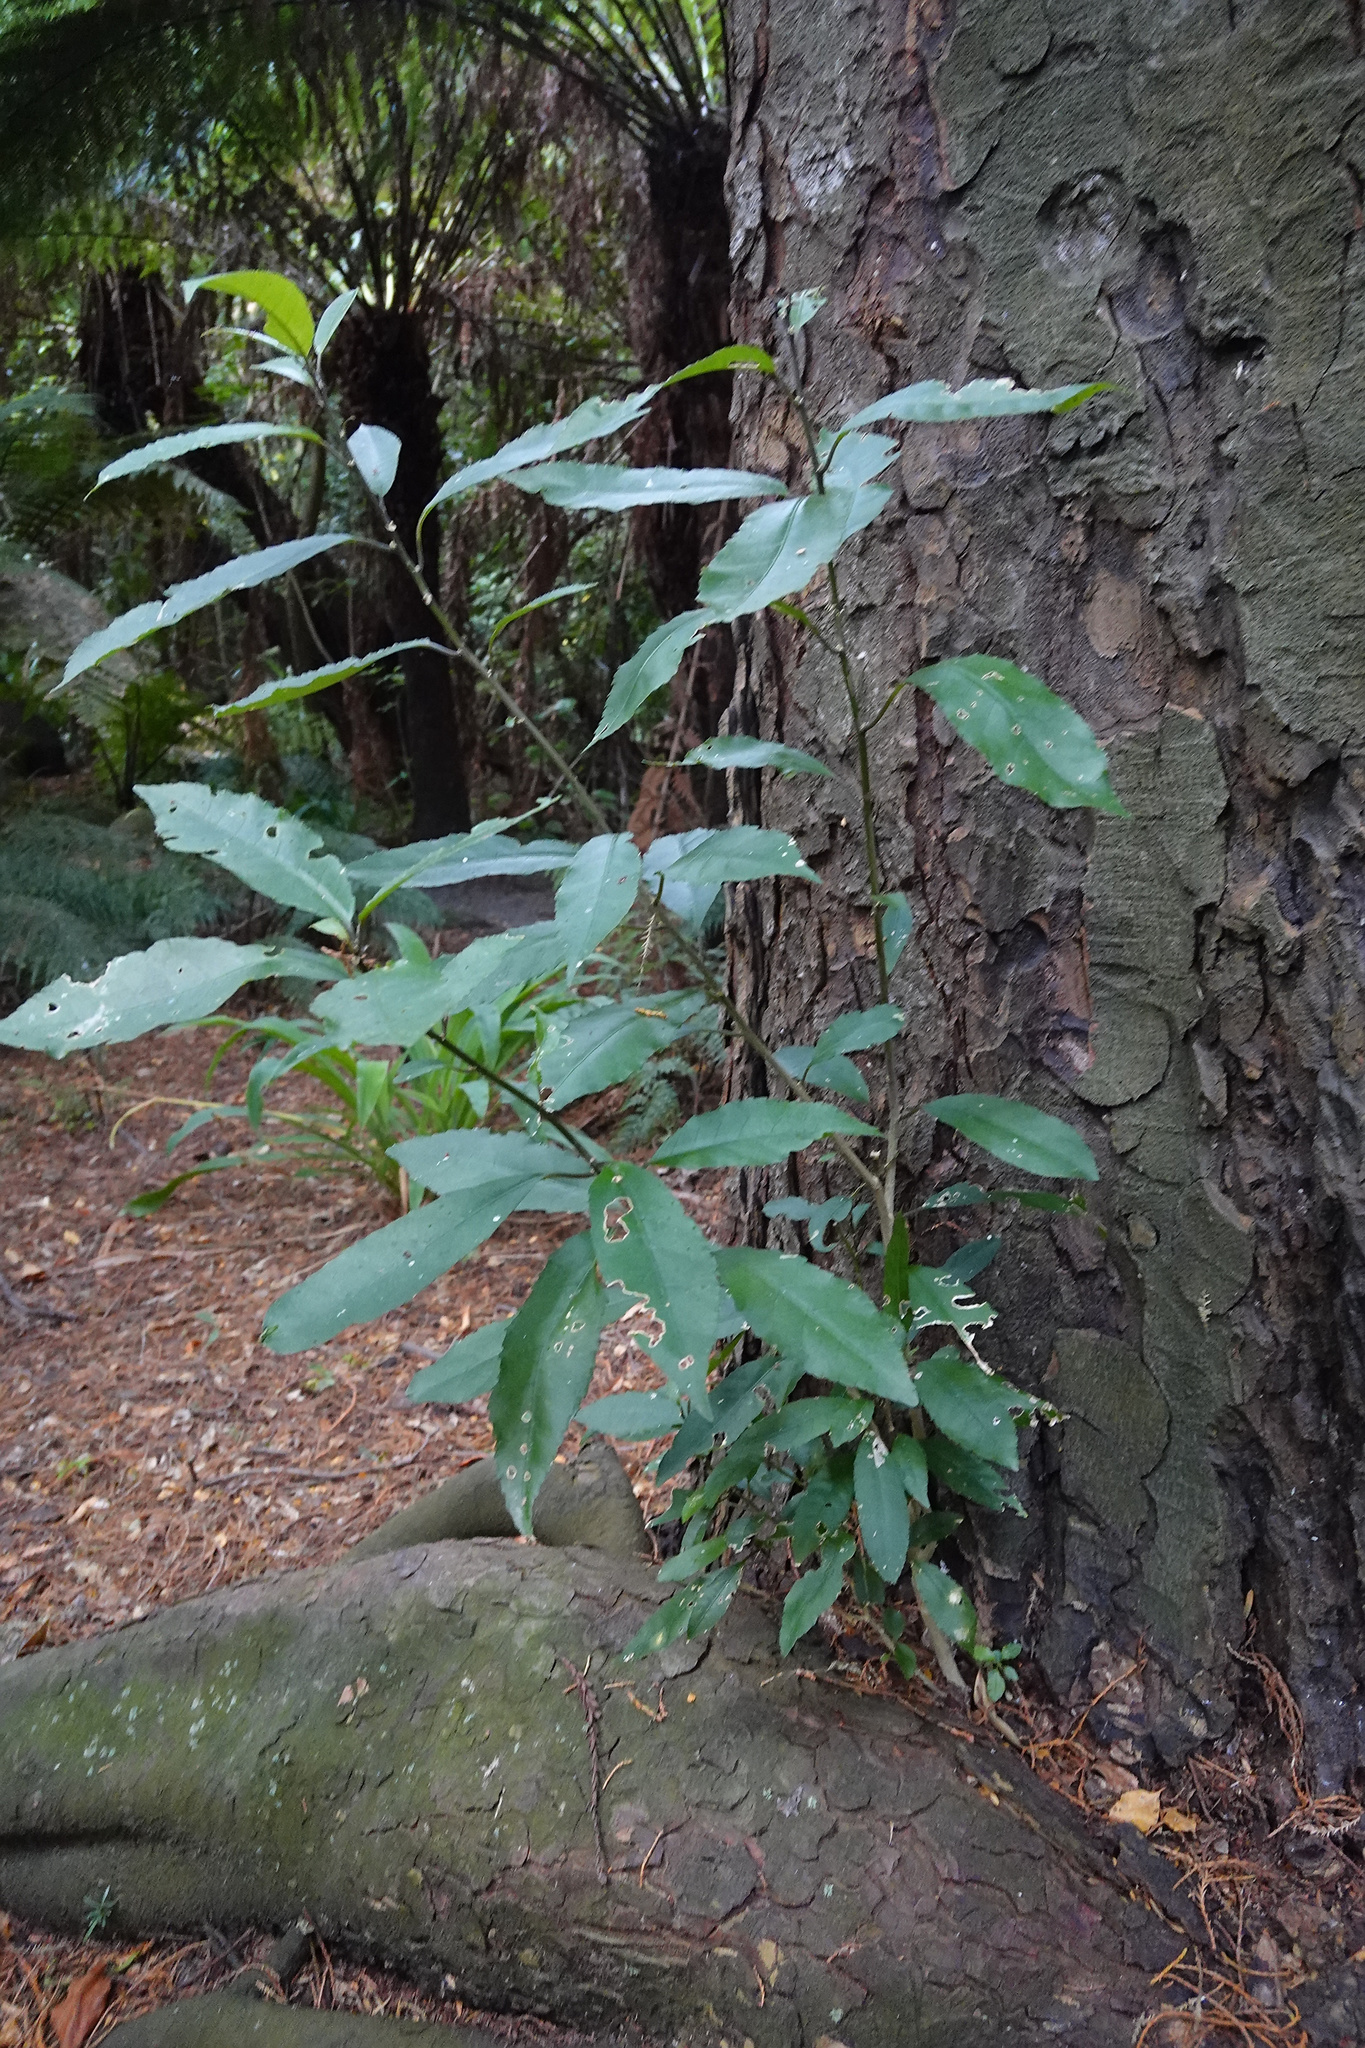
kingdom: Plantae
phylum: Tracheophyta
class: Magnoliopsida
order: Malpighiales
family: Violaceae
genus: Melicytus
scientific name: Melicytus ramiflorus
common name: Mahoe
